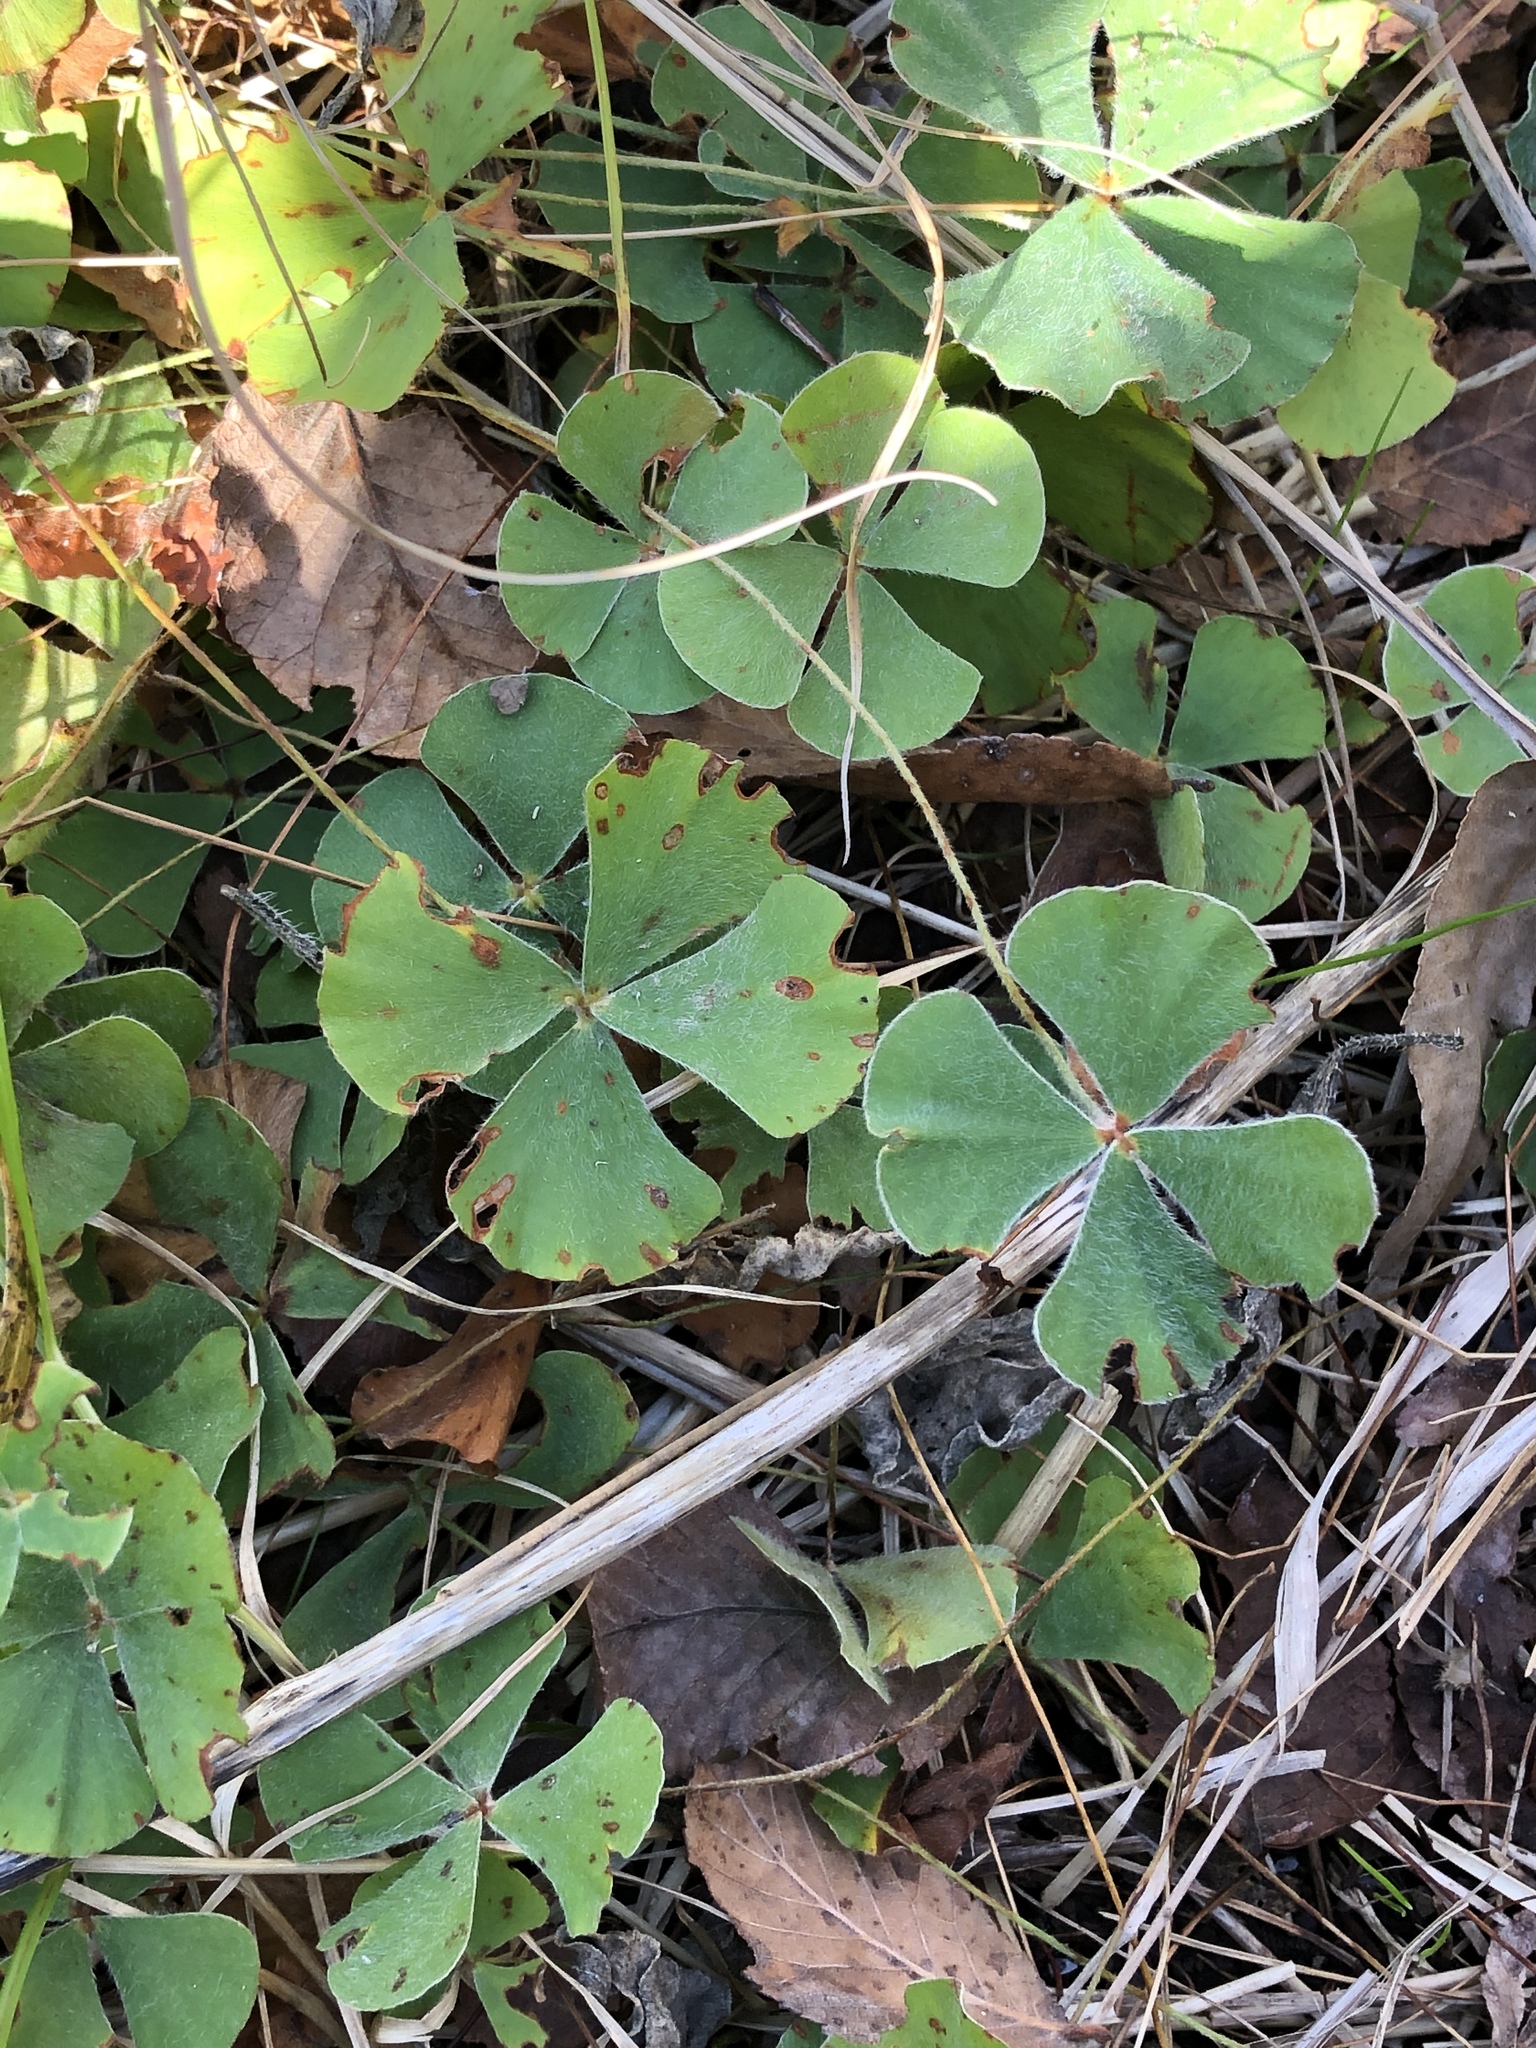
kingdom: Plantae
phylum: Tracheophyta
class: Polypodiopsida
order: Salviniales
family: Marsileaceae
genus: Marsilea
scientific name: Marsilea macropoda
